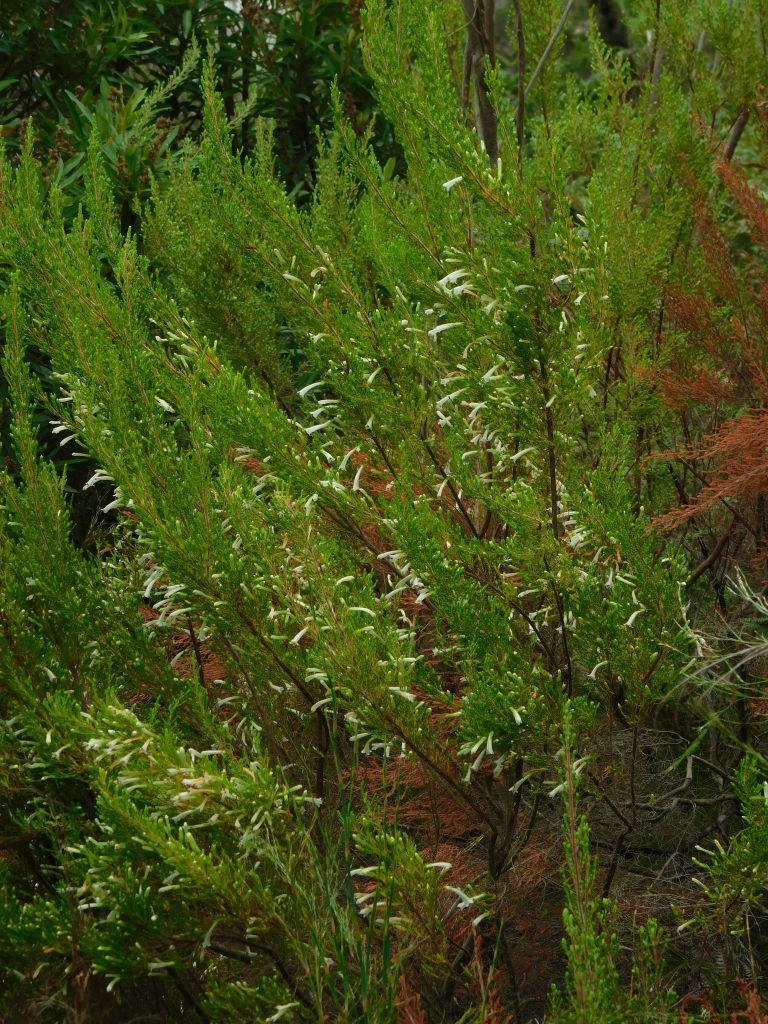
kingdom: Plantae
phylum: Tracheophyta
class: Magnoliopsida
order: Ericales
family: Ericaceae
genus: Erica
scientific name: Erica curviflora
